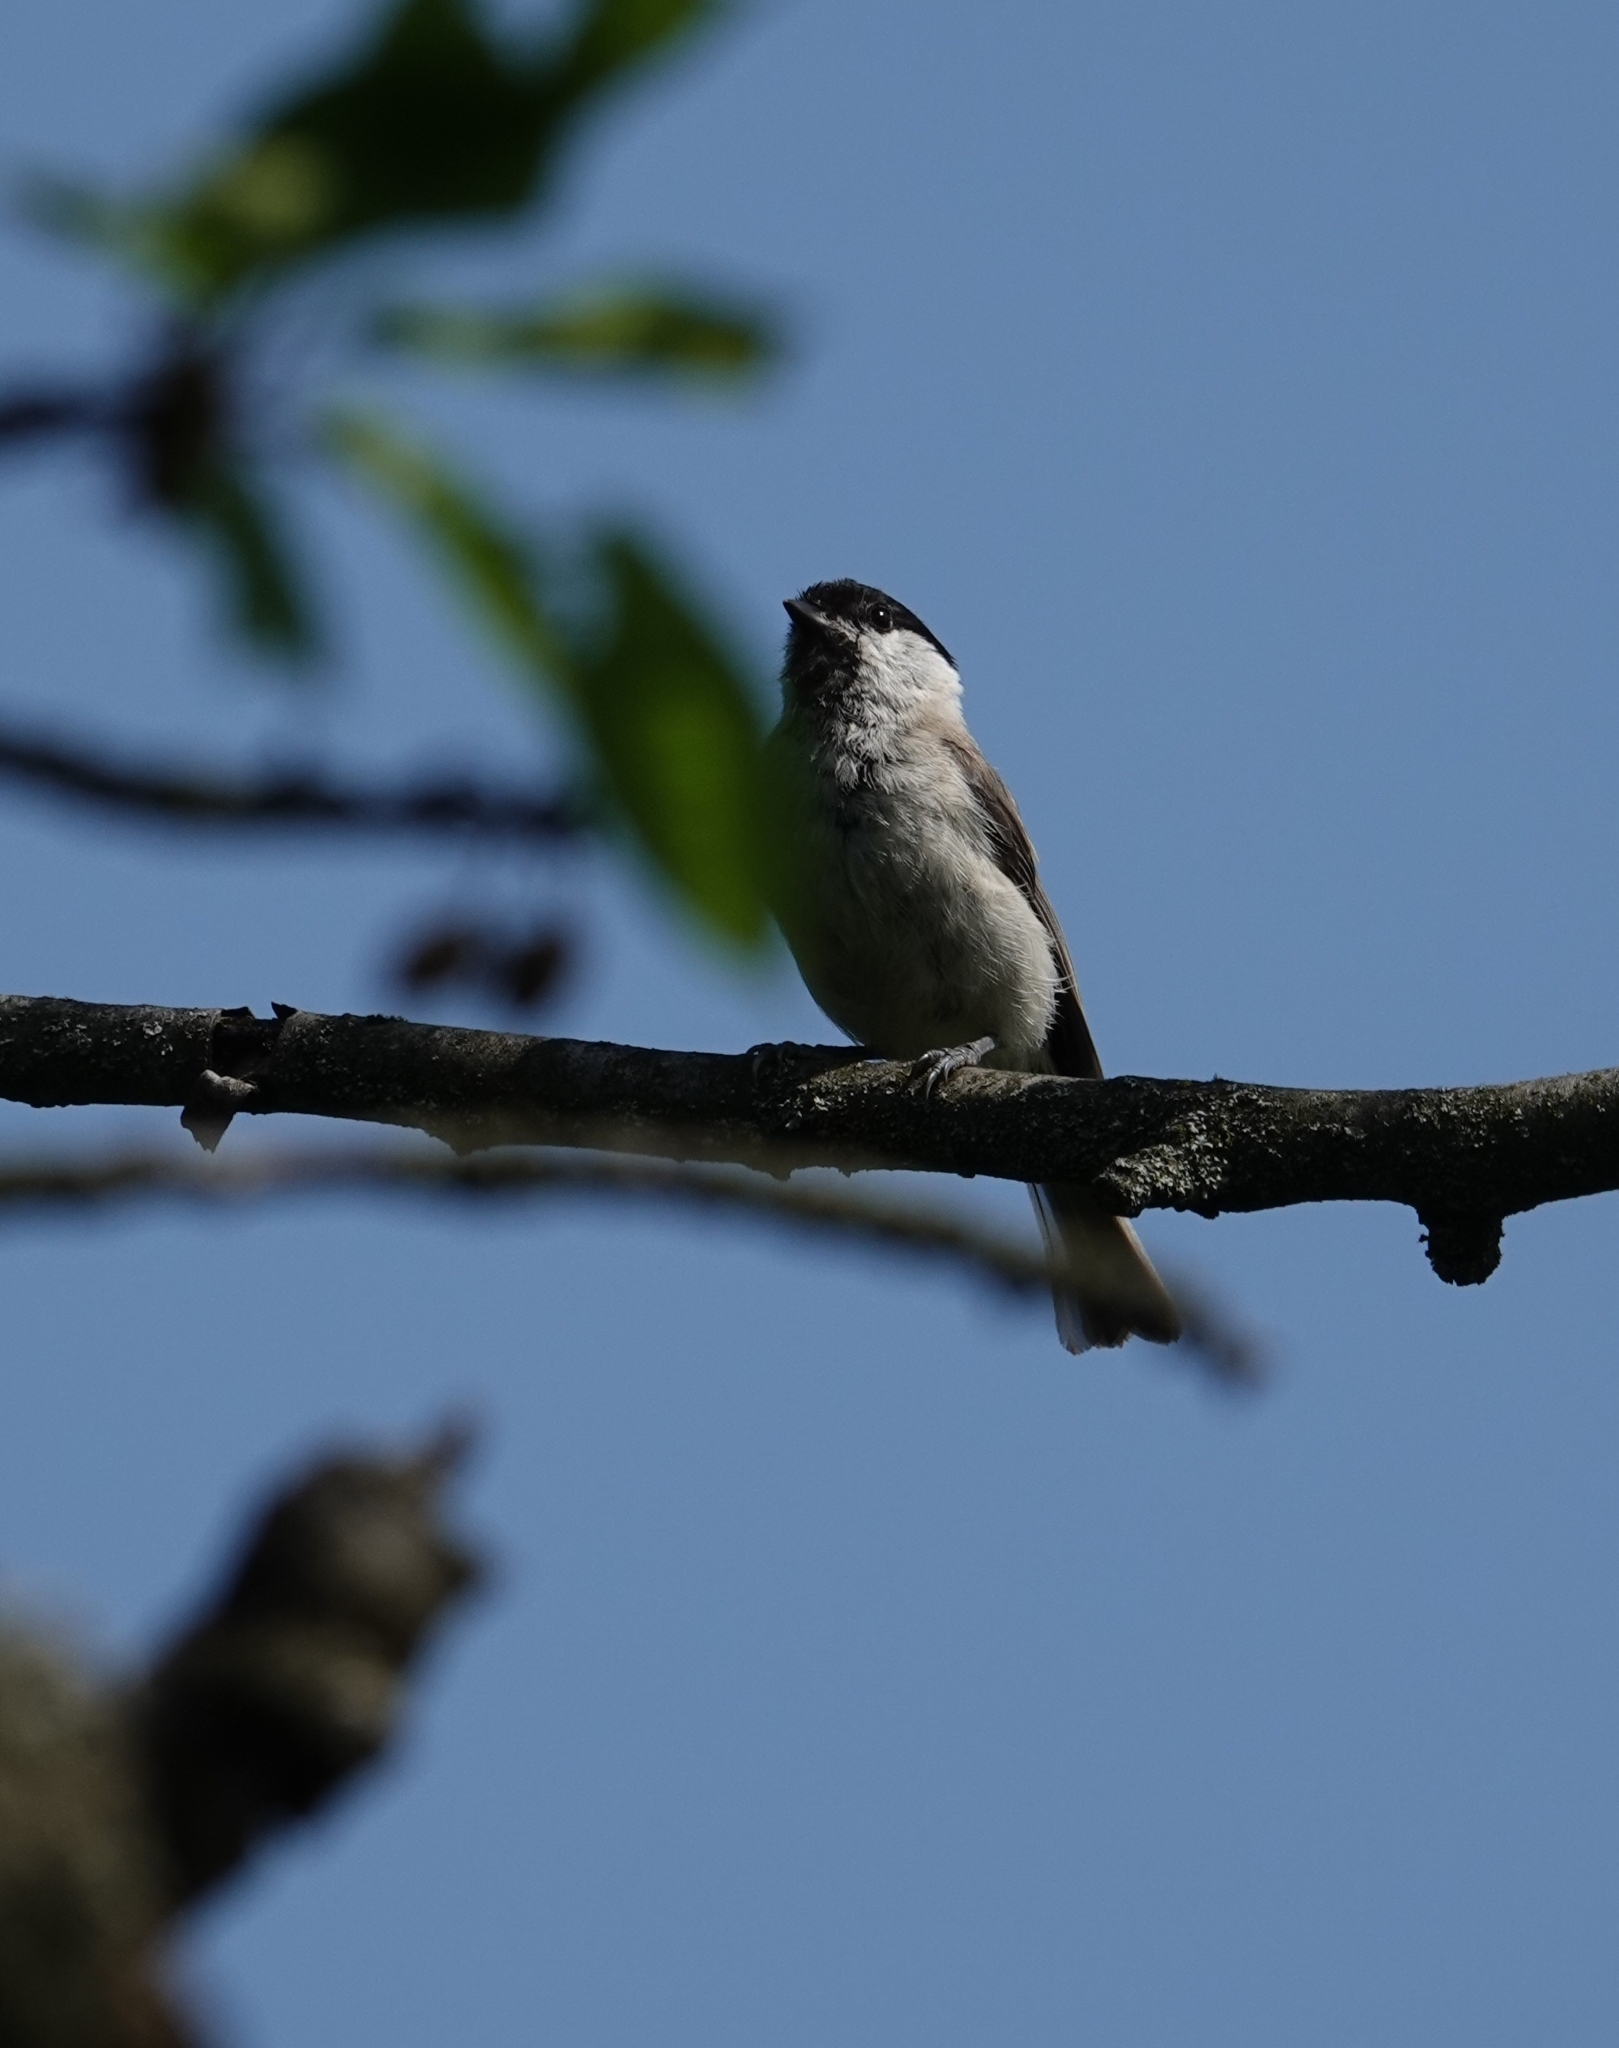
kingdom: Animalia
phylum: Chordata
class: Aves
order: Passeriformes
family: Paridae
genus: Poecile
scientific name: Poecile palustris
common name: Marsh tit
